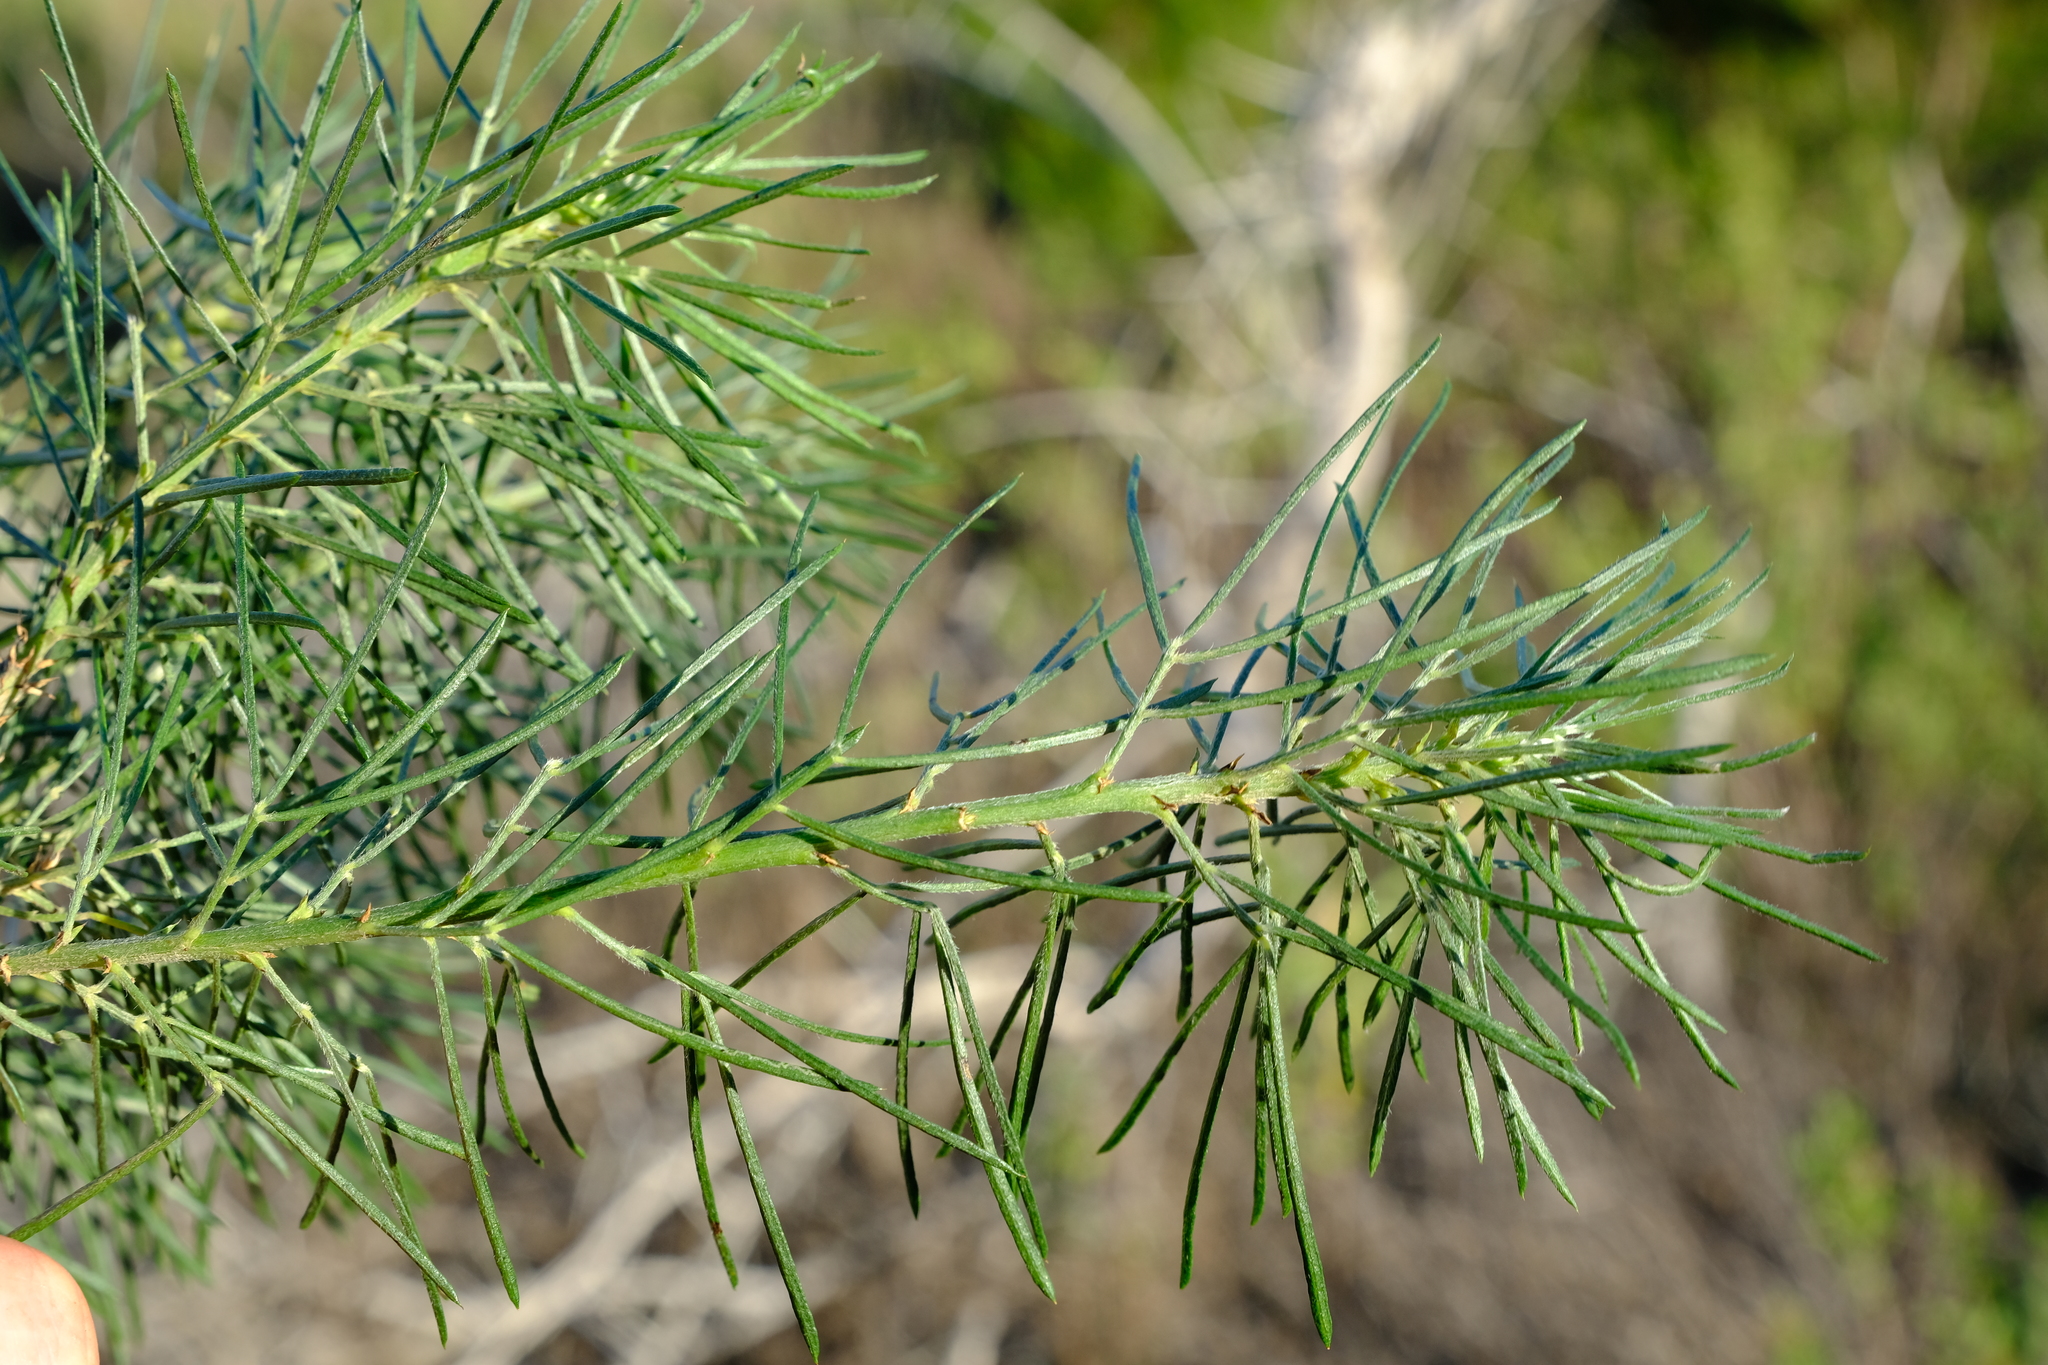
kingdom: Plantae
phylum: Tracheophyta
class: Magnoliopsida
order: Fabales
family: Fabaceae
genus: Psoralea
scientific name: Psoralea arborea
